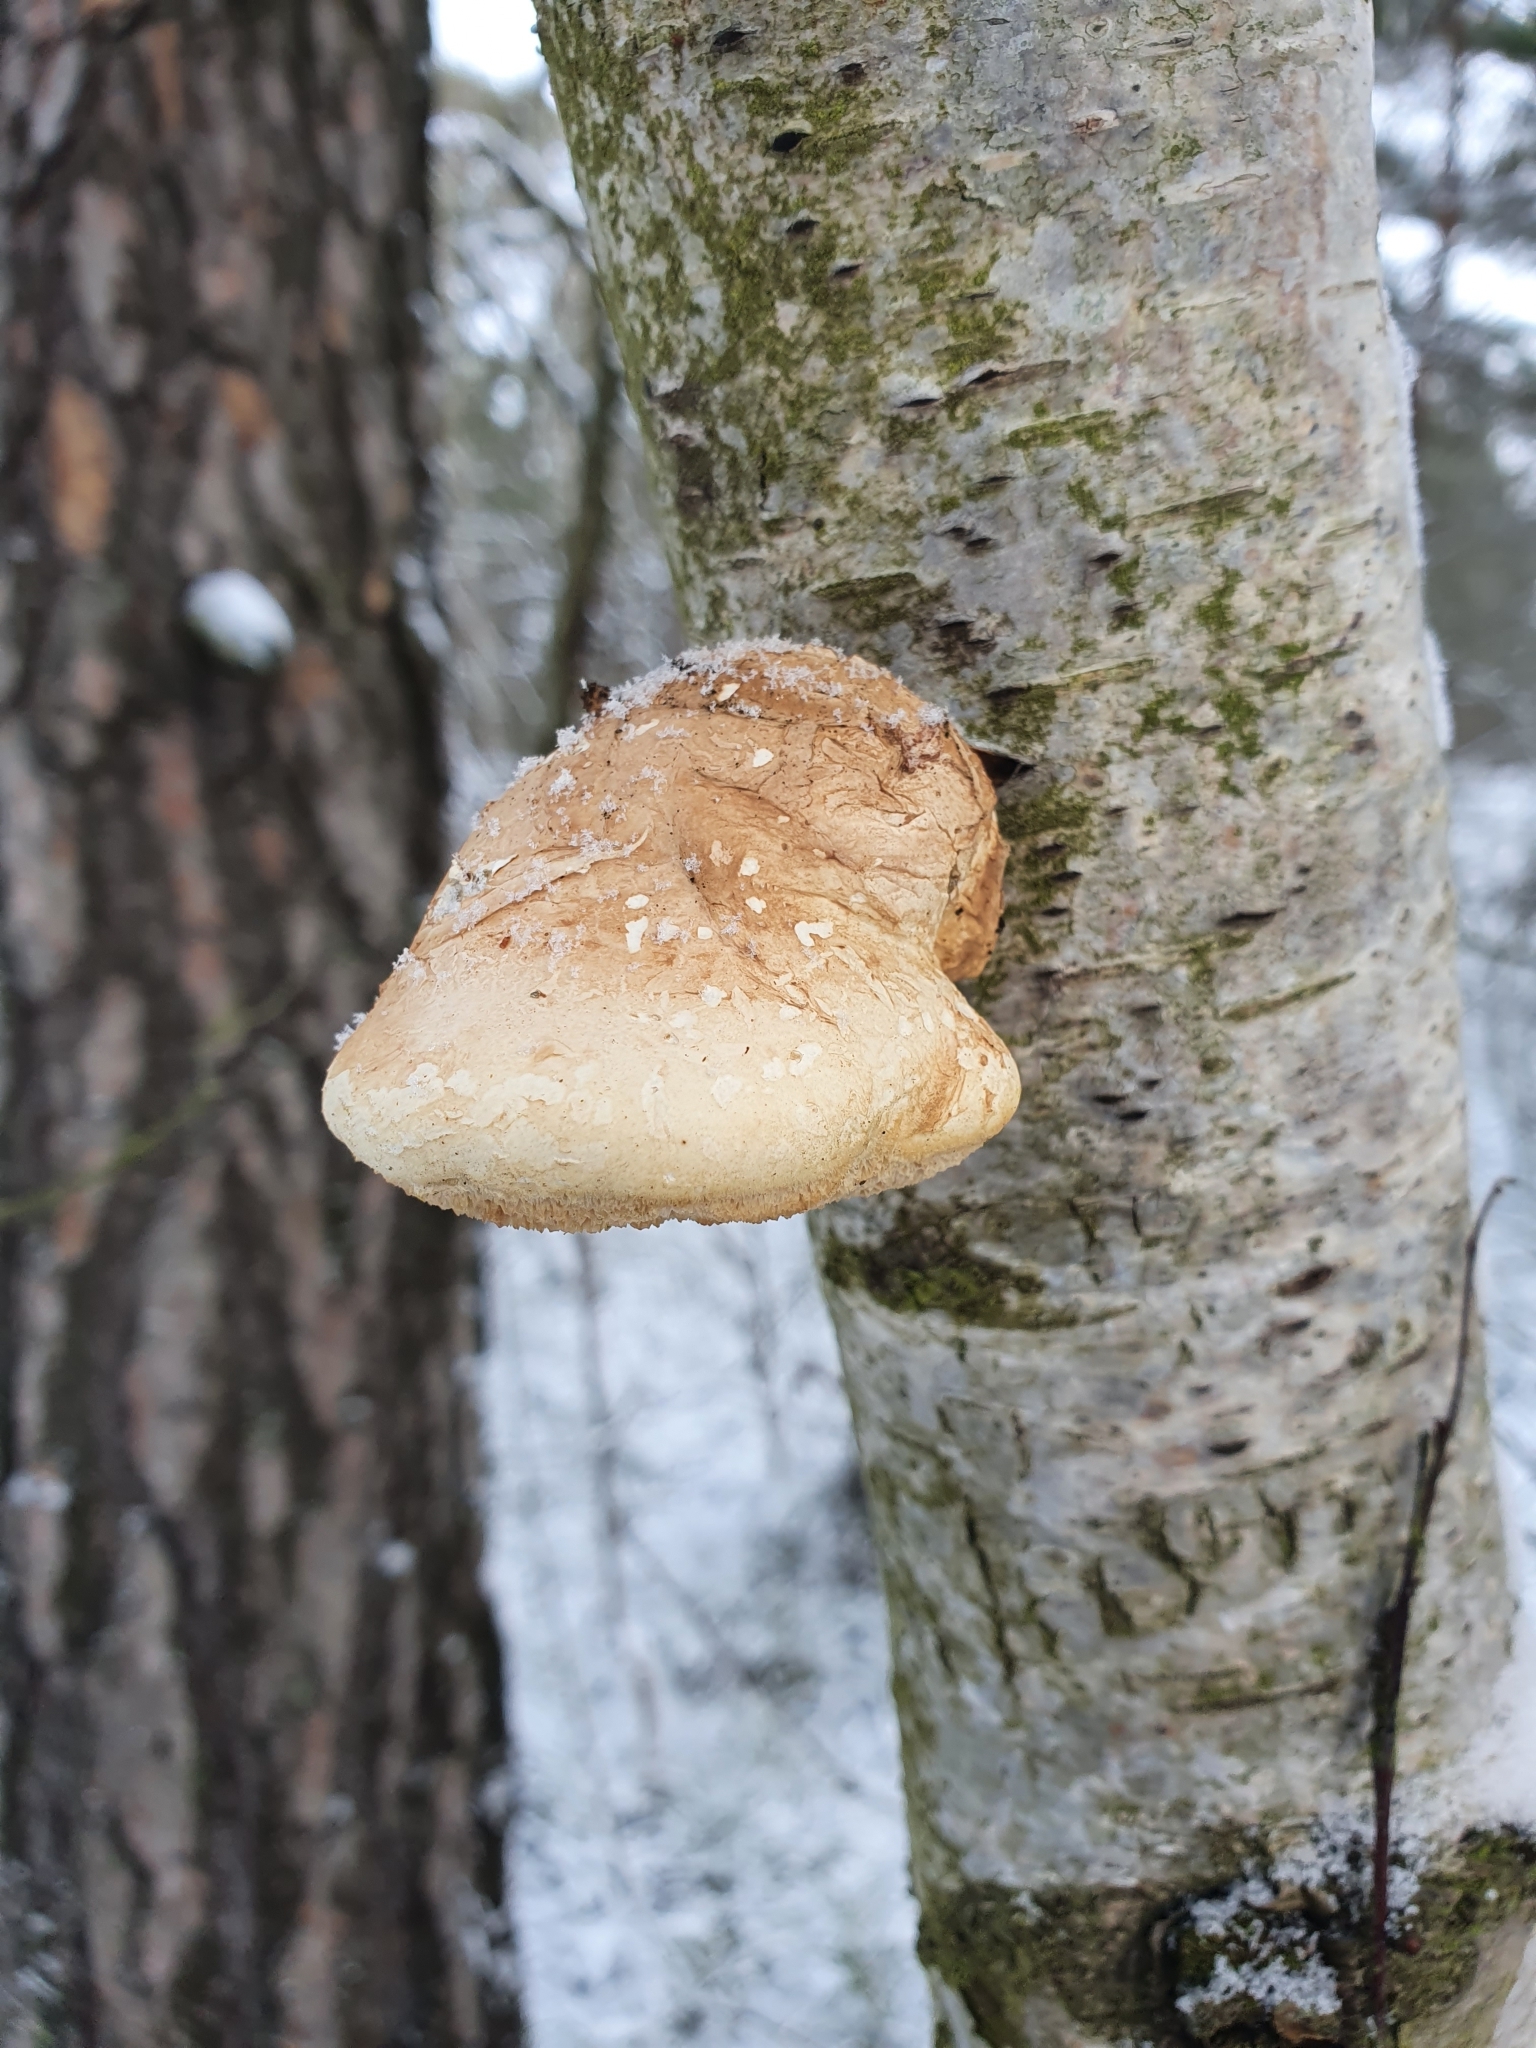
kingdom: Fungi
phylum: Basidiomycota
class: Agaricomycetes
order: Polyporales
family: Fomitopsidaceae
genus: Fomitopsis
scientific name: Fomitopsis betulina
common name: Birch polypore
